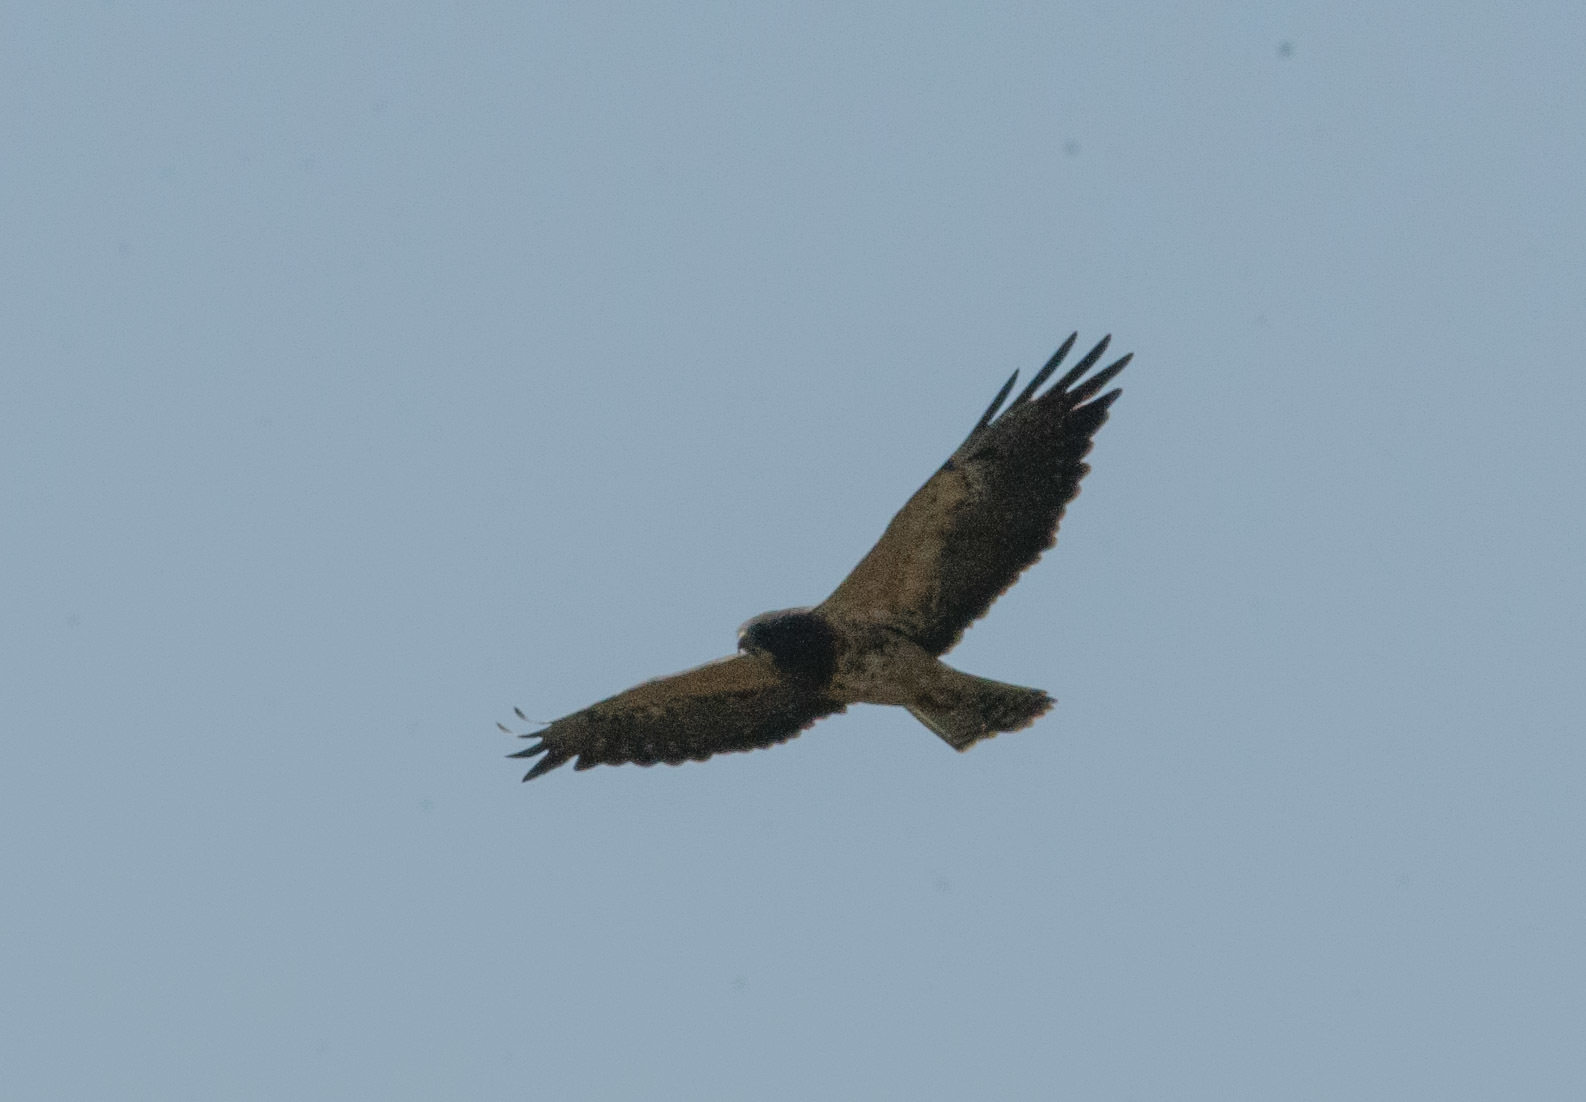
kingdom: Animalia
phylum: Chordata
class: Aves
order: Accipitriformes
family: Accipitridae
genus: Buteo
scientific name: Buteo swainsoni
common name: Swainson's hawk
